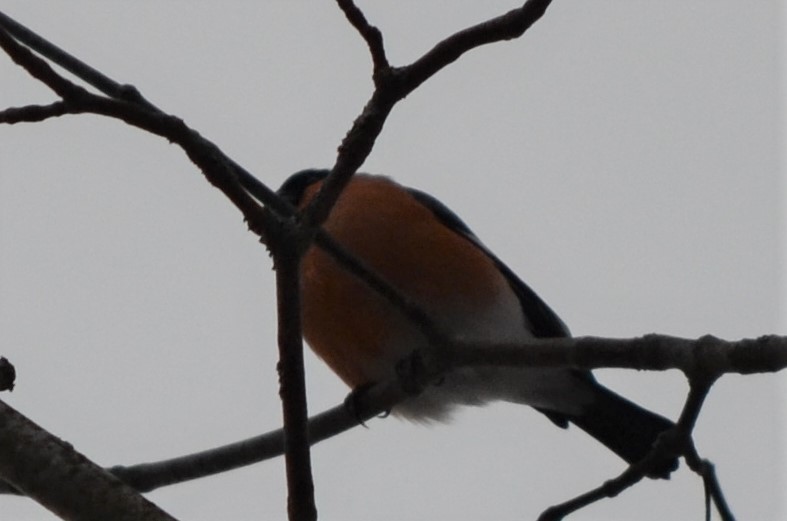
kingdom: Animalia
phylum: Chordata
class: Aves
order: Passeriformes
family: Fringillidae
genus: Pyrrhula
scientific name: Pyrrhula pyrrhula
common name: Eurasian bullfinch
